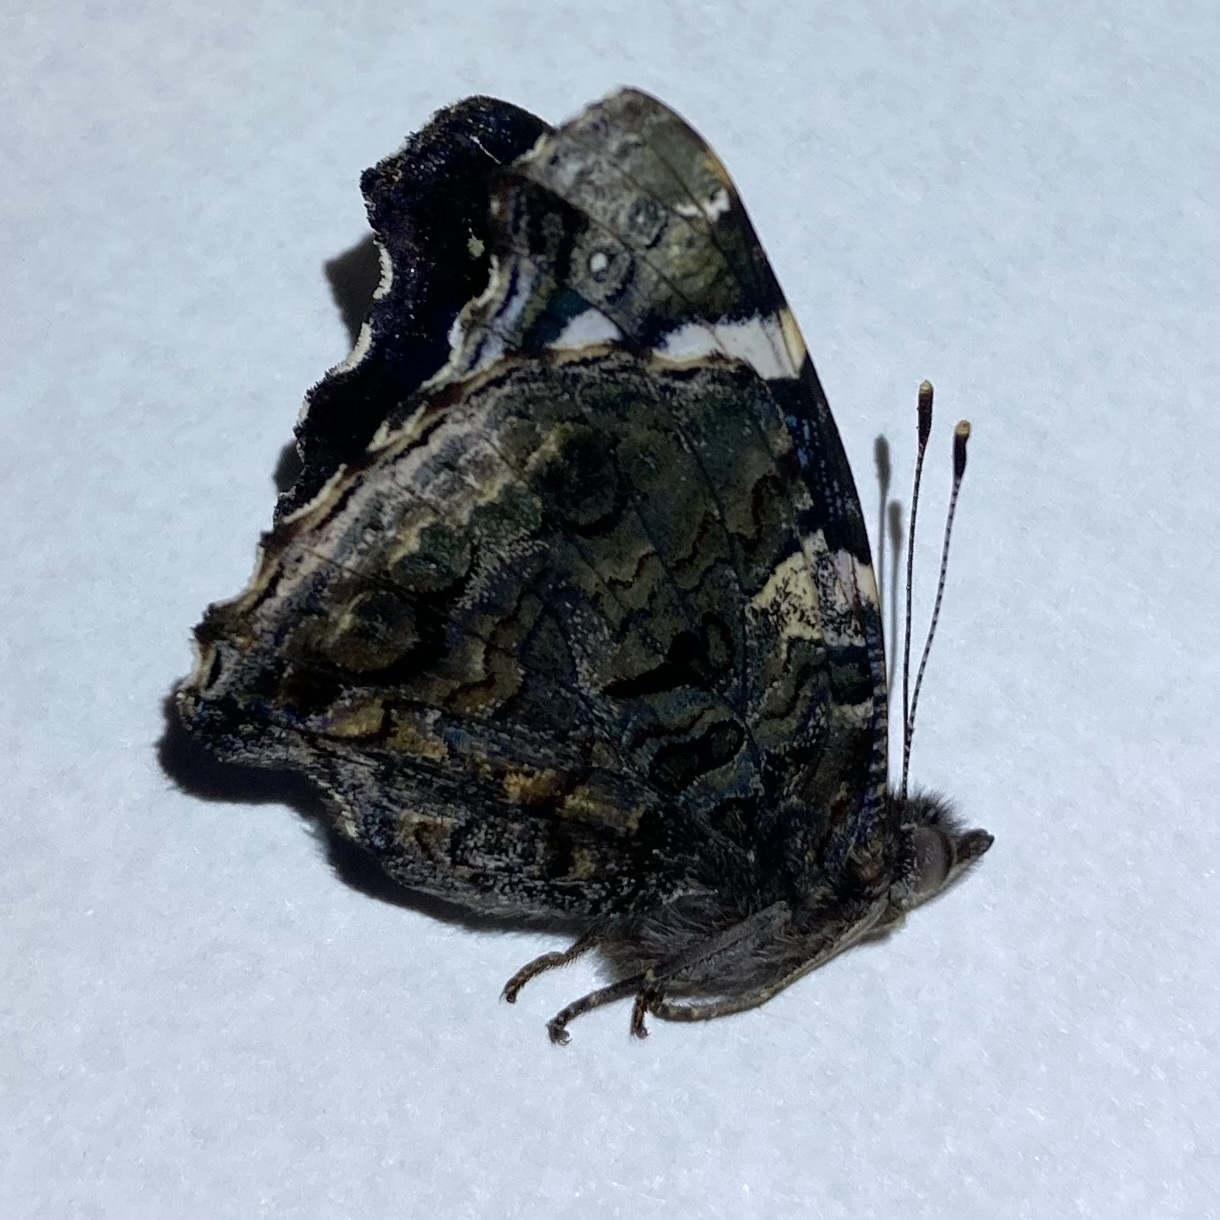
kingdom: Animalia
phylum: Arthropoda
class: Insecta
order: Lepidoptera
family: Nymphalidae
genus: Vanessa
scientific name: Vanessa atalanta
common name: Red admiral
